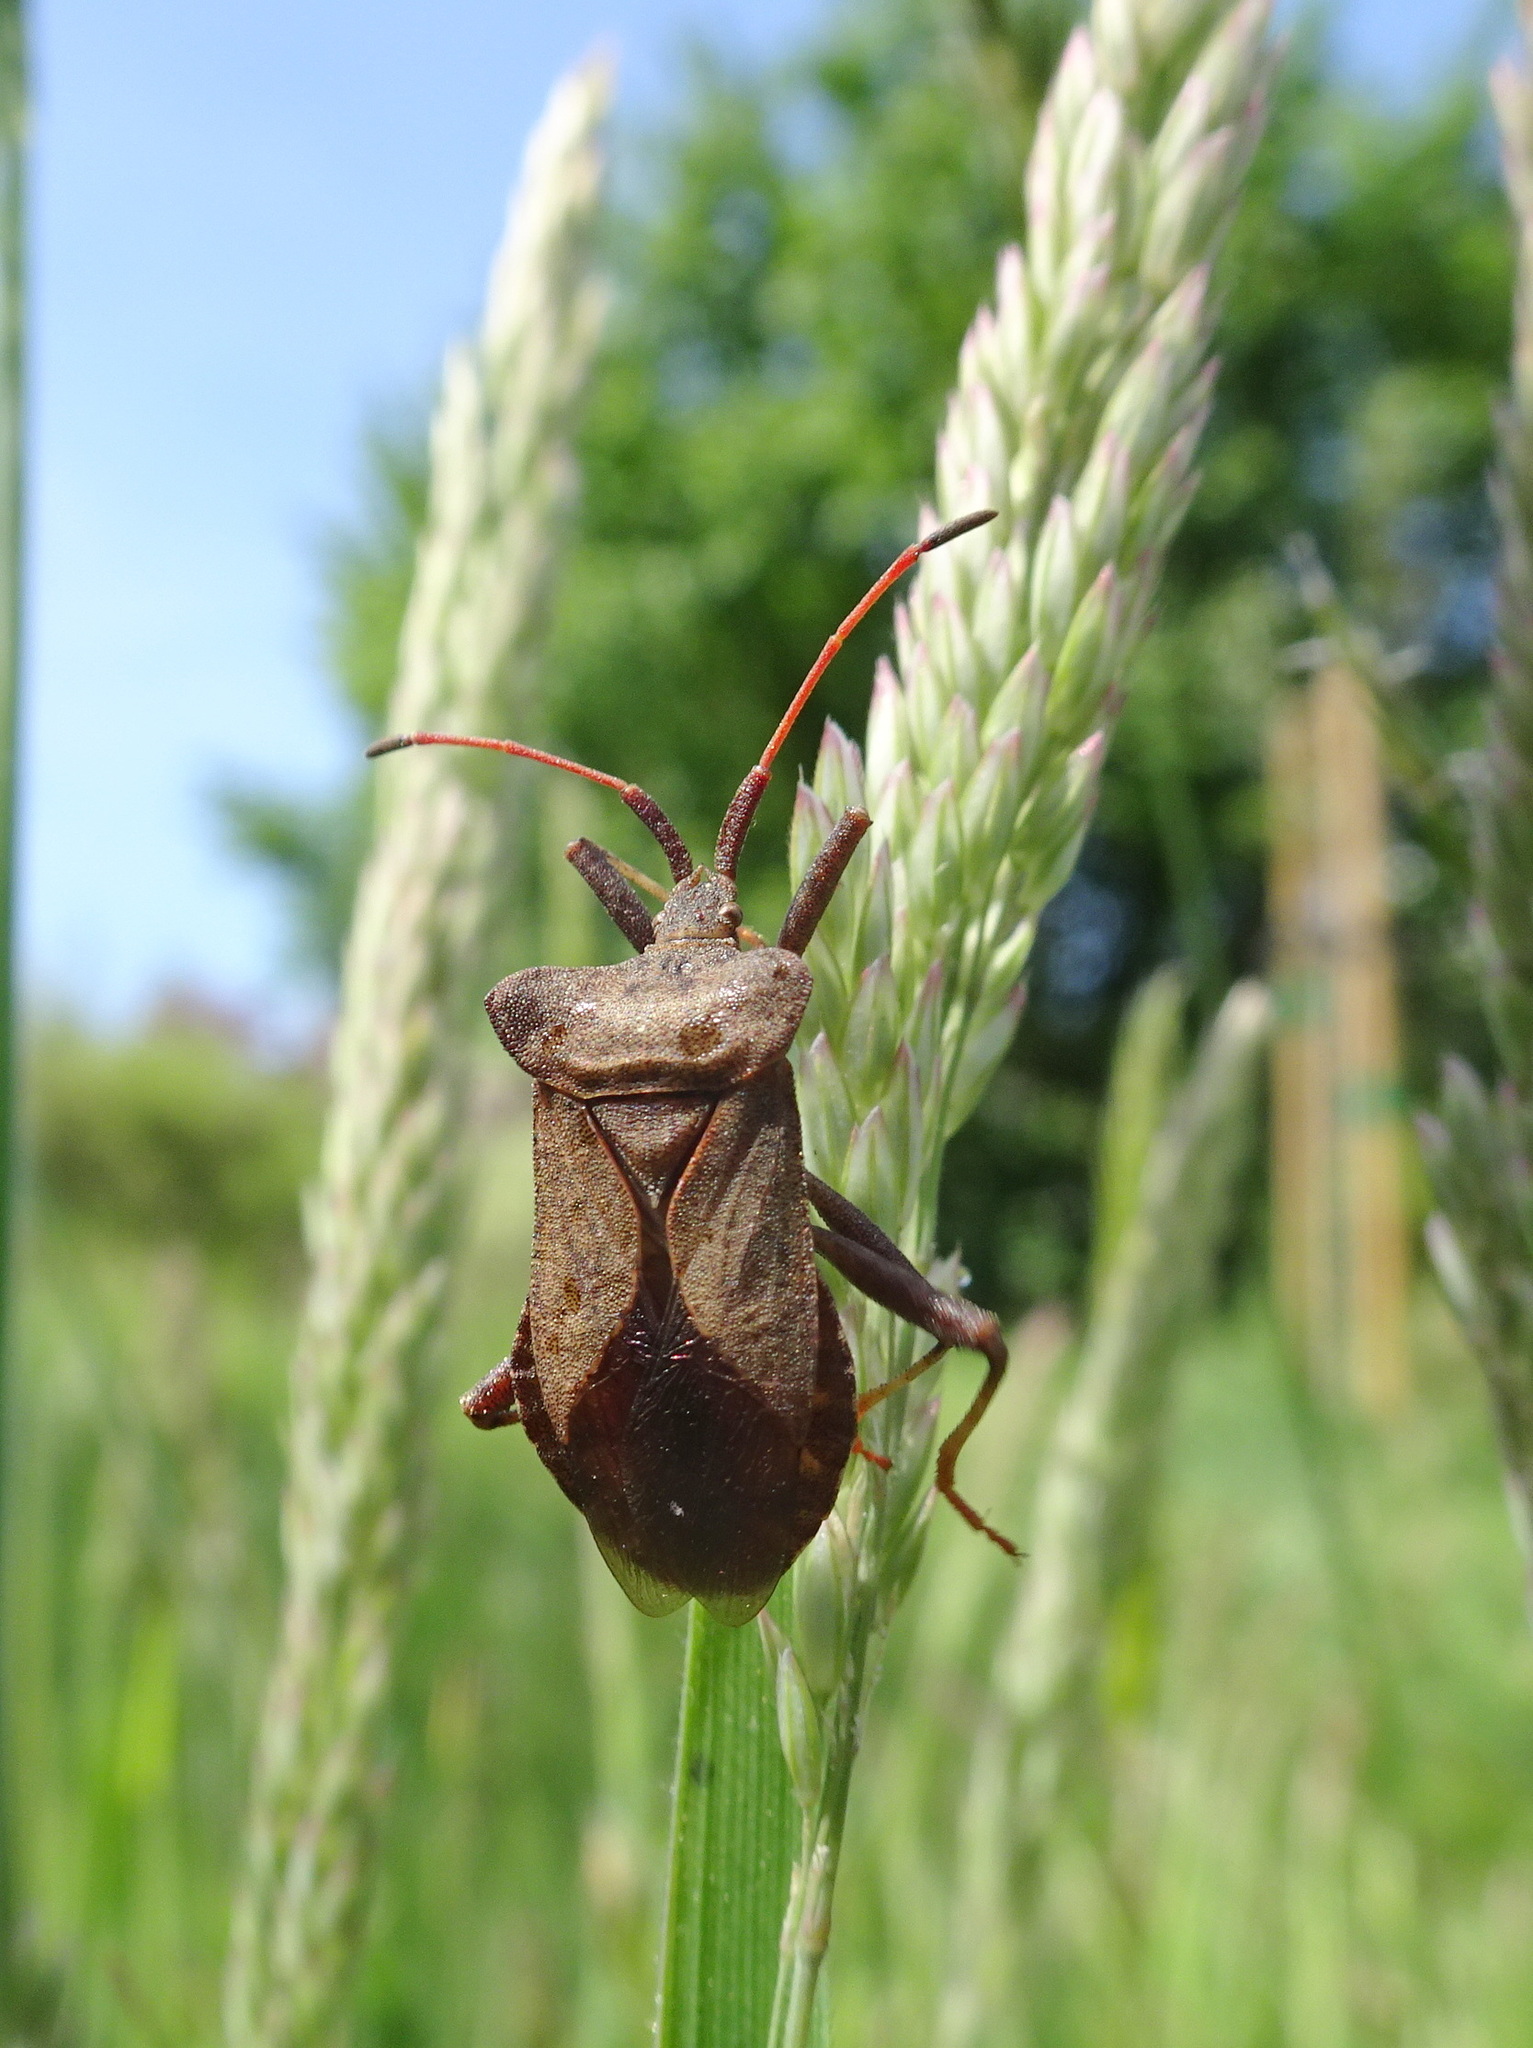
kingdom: Animalia
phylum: Arthropoda
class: Insecta
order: Hemiptera
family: Coreidae
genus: Coreus
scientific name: Coreus marginatus
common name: Dock bug
